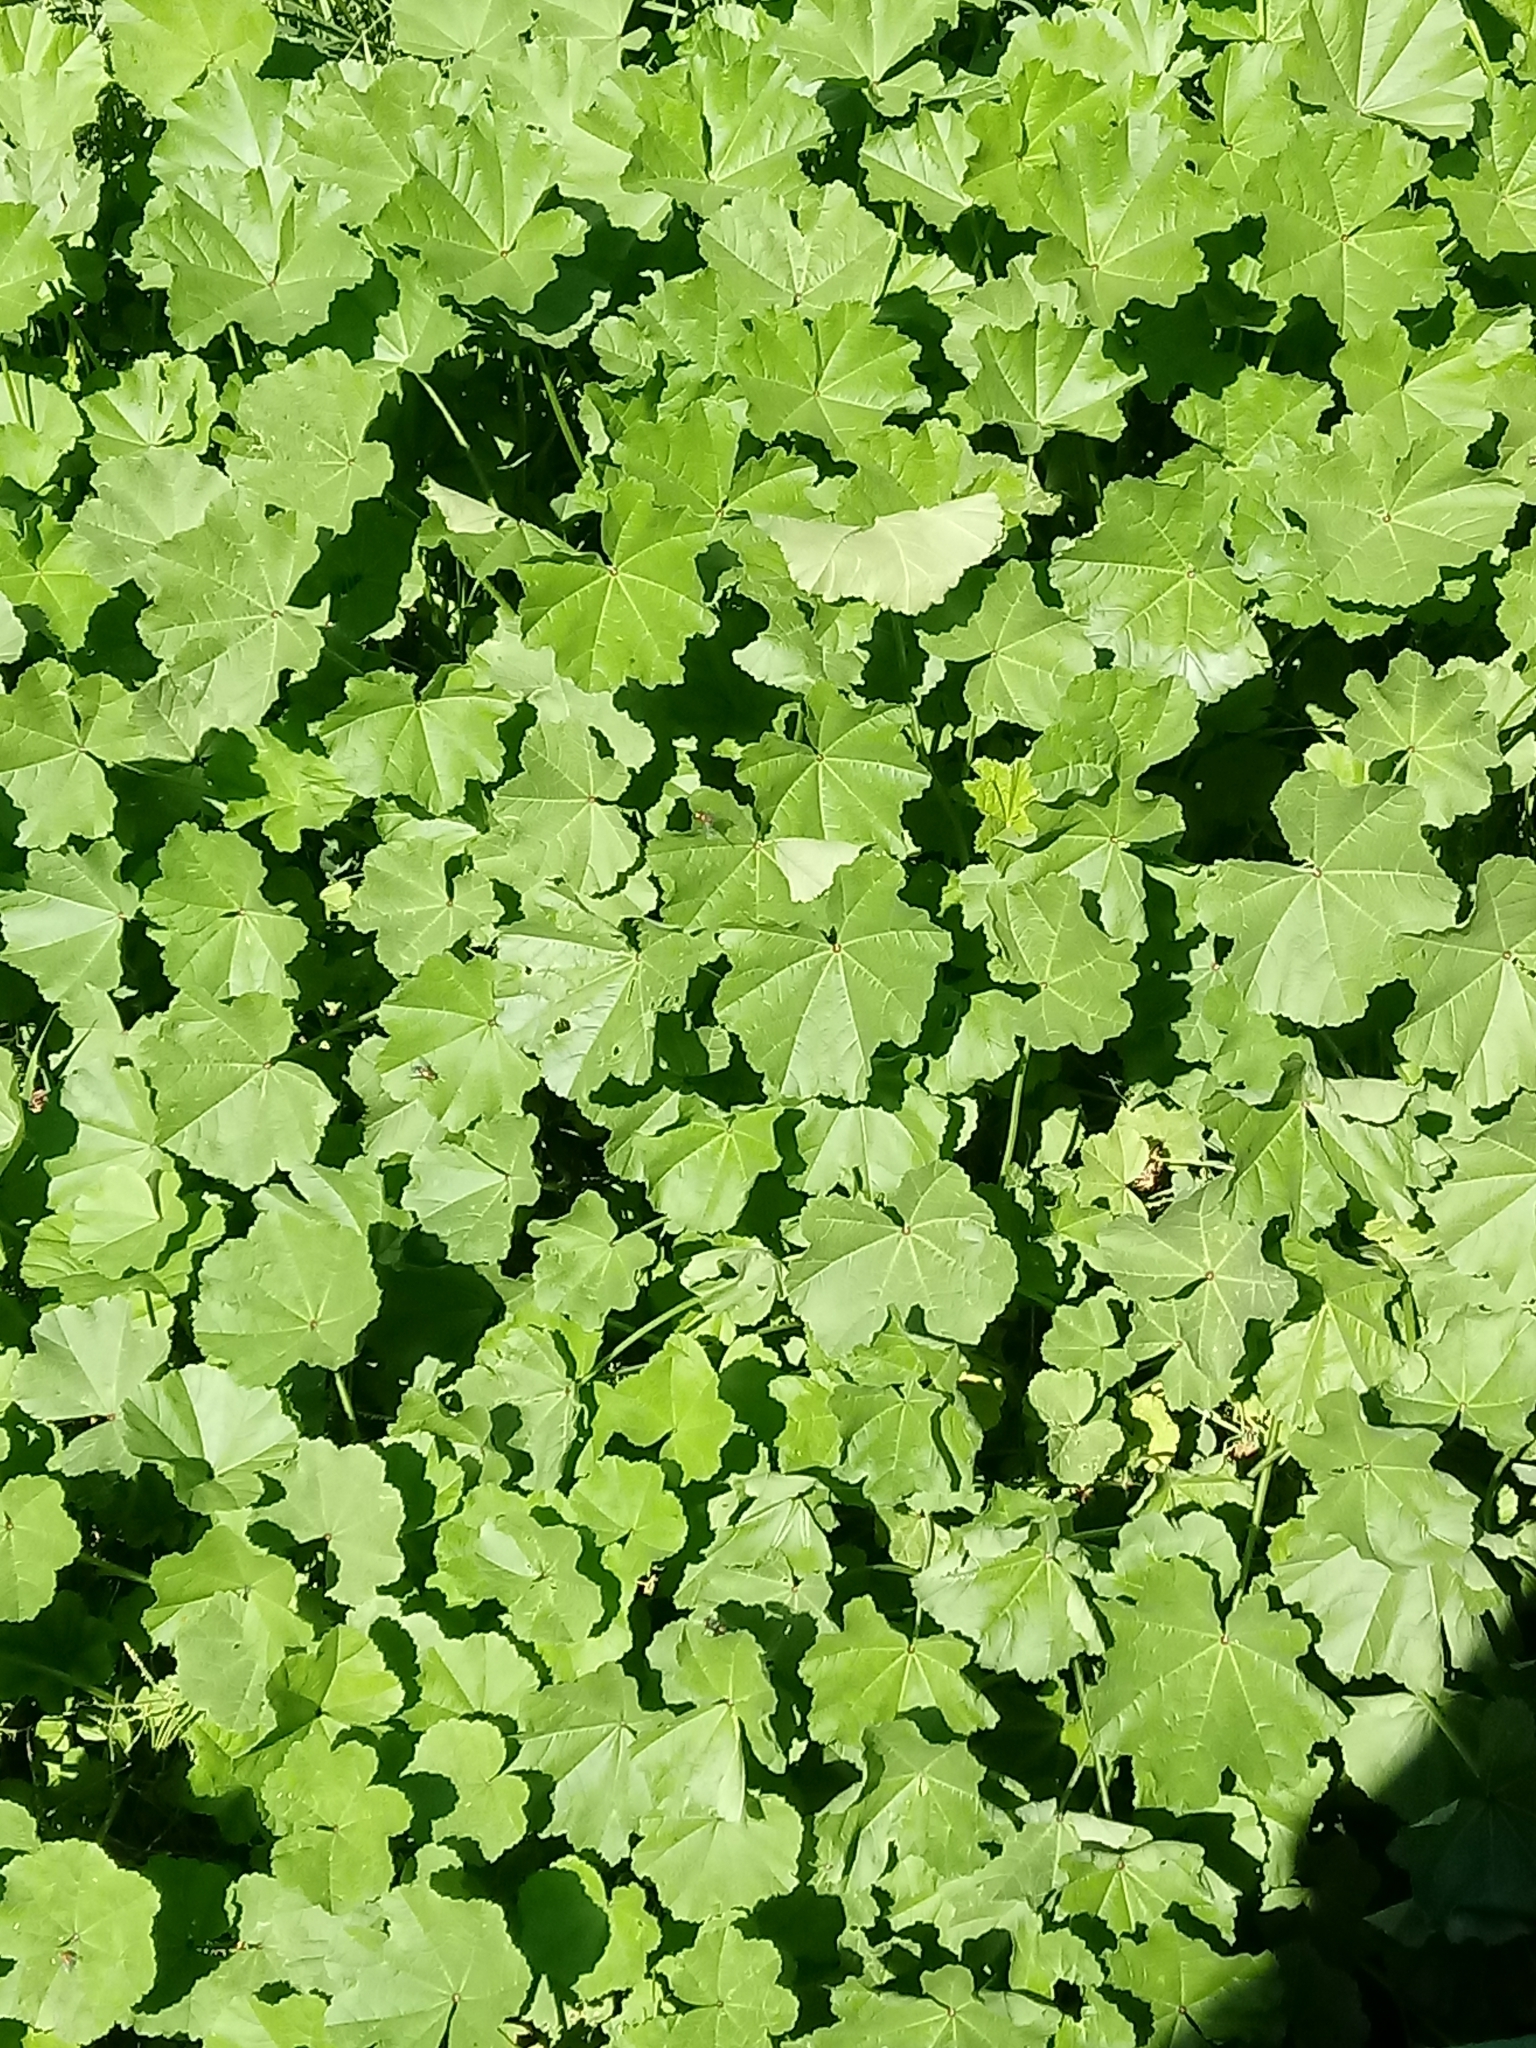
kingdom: Plantae
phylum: Tracheophyta
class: Magnoliopsida
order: Malvales
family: Malvaceae
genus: Malva
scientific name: Malva parviflora
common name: Least mallow
